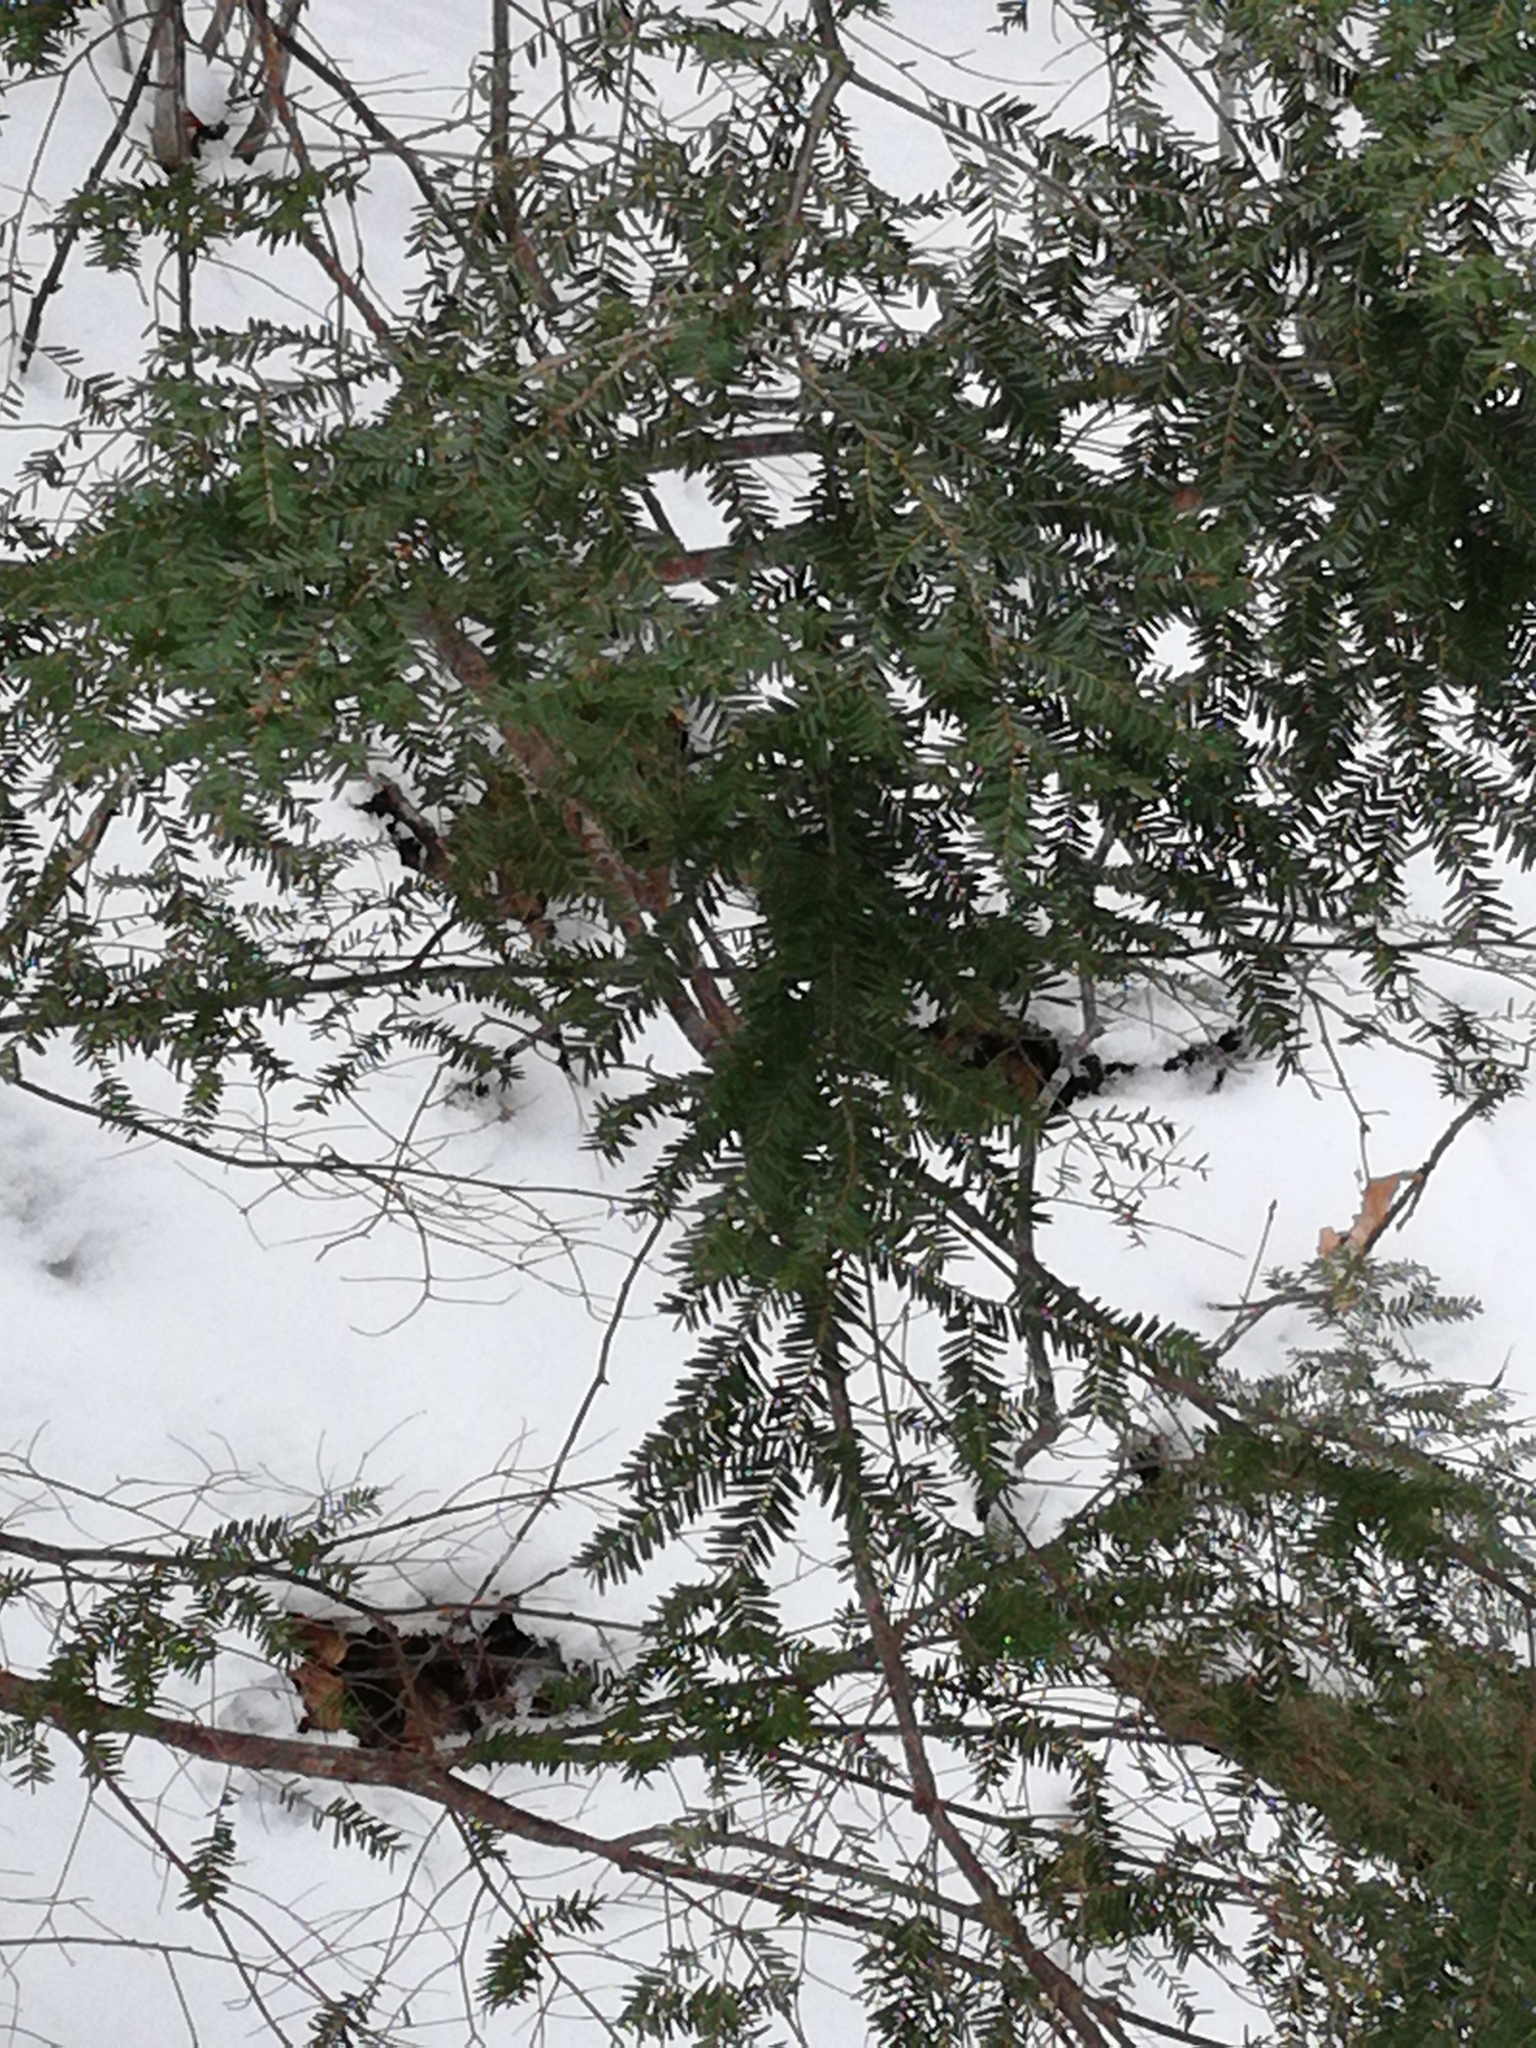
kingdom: Plantae
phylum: Tracheophyta
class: Pinopsida
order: Pinales
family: Pinaceae
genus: Tsuga
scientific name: Tsuga canadensis
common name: Eastern hemlock
